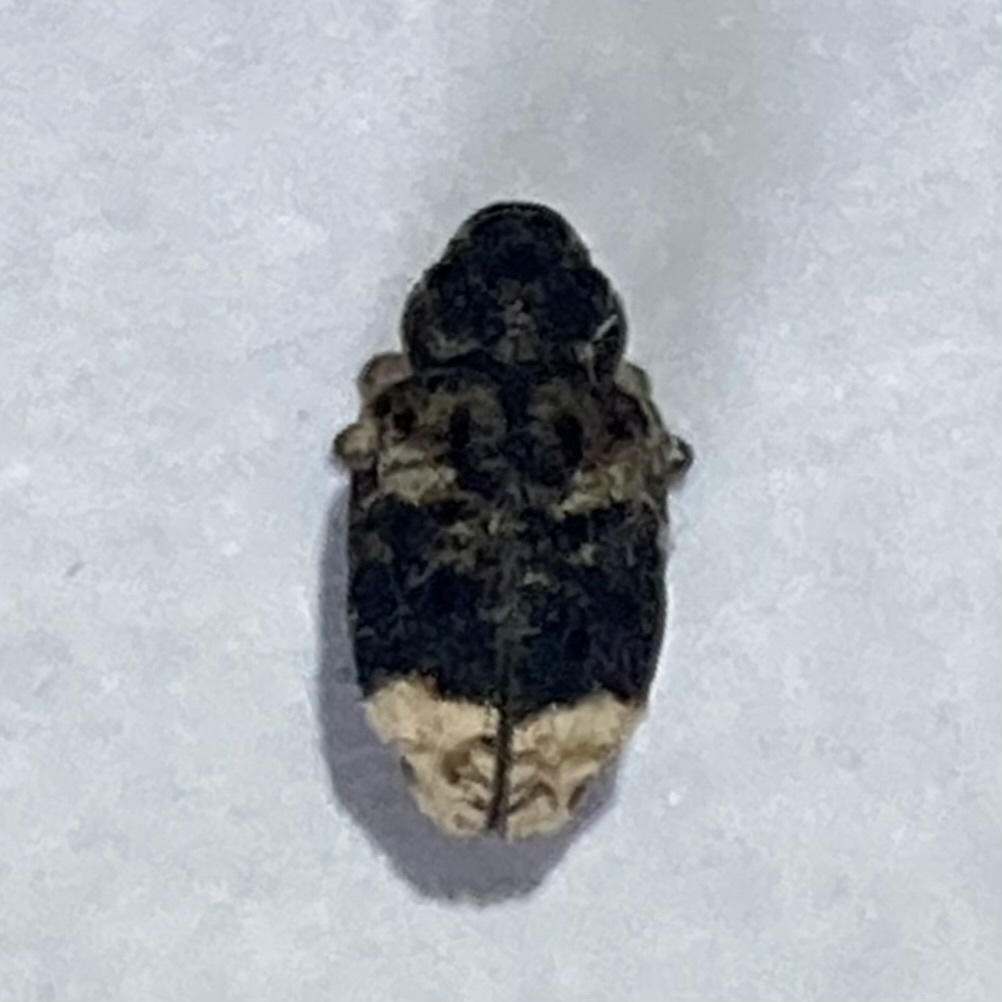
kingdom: Animalia
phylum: Arthropoda
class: Insecta
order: Coleoptera
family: Curculionidae
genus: Cryptorhynchus
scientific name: Cryptorhynchus lapathi
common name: Weevil
